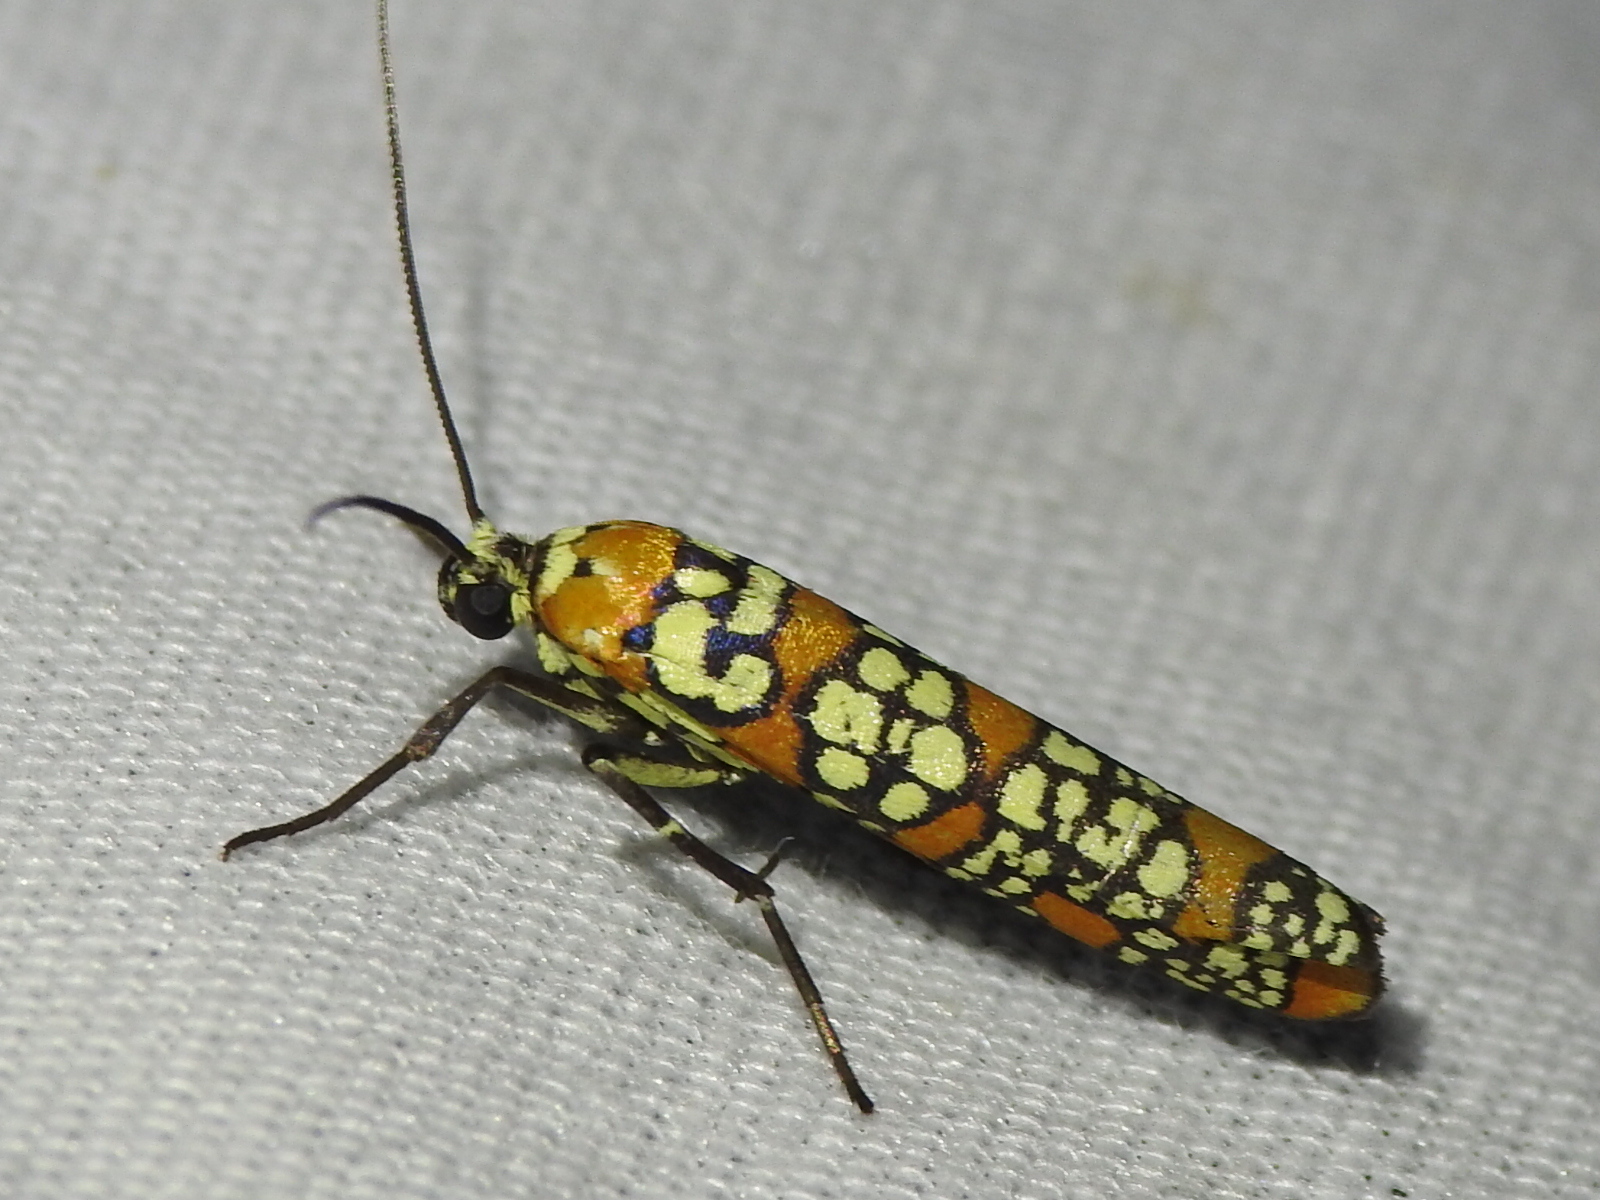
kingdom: Animalia
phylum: Arthropoda
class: Insecta
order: Lepidoptera
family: Attevidae
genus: Atteva
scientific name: Atteva punctella
